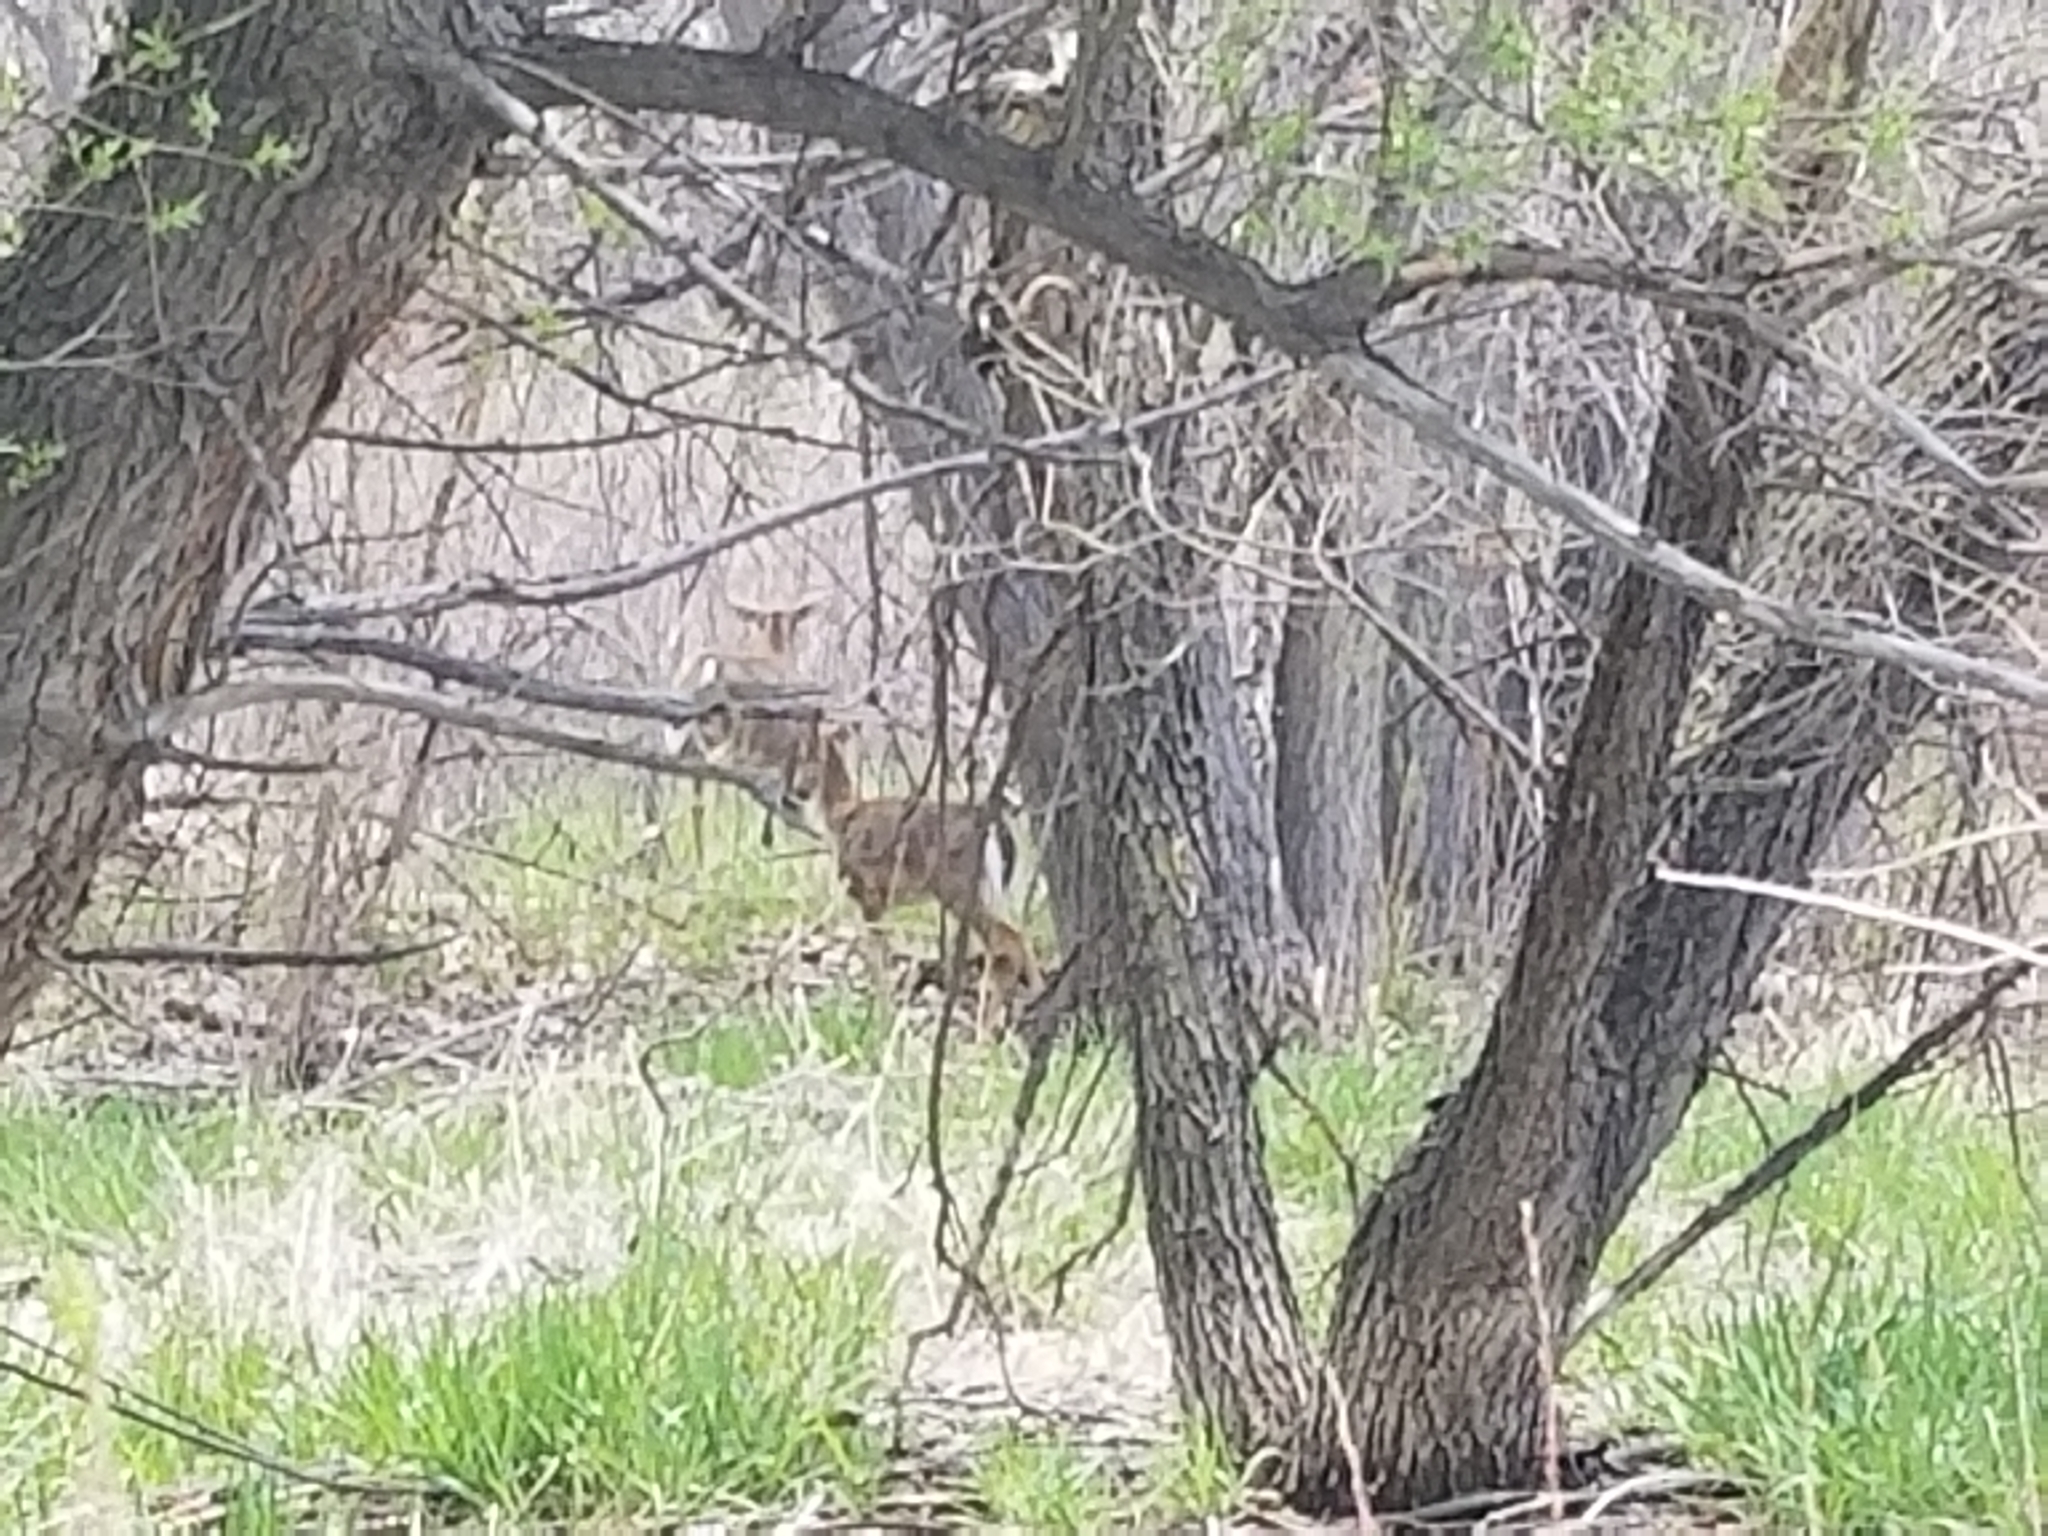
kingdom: Animalia
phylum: Chordata
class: Mammalia
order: Artiodactyla
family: Cervidae
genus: Odocoileus
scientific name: Odocoileus virginianus
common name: White-tailed deer
